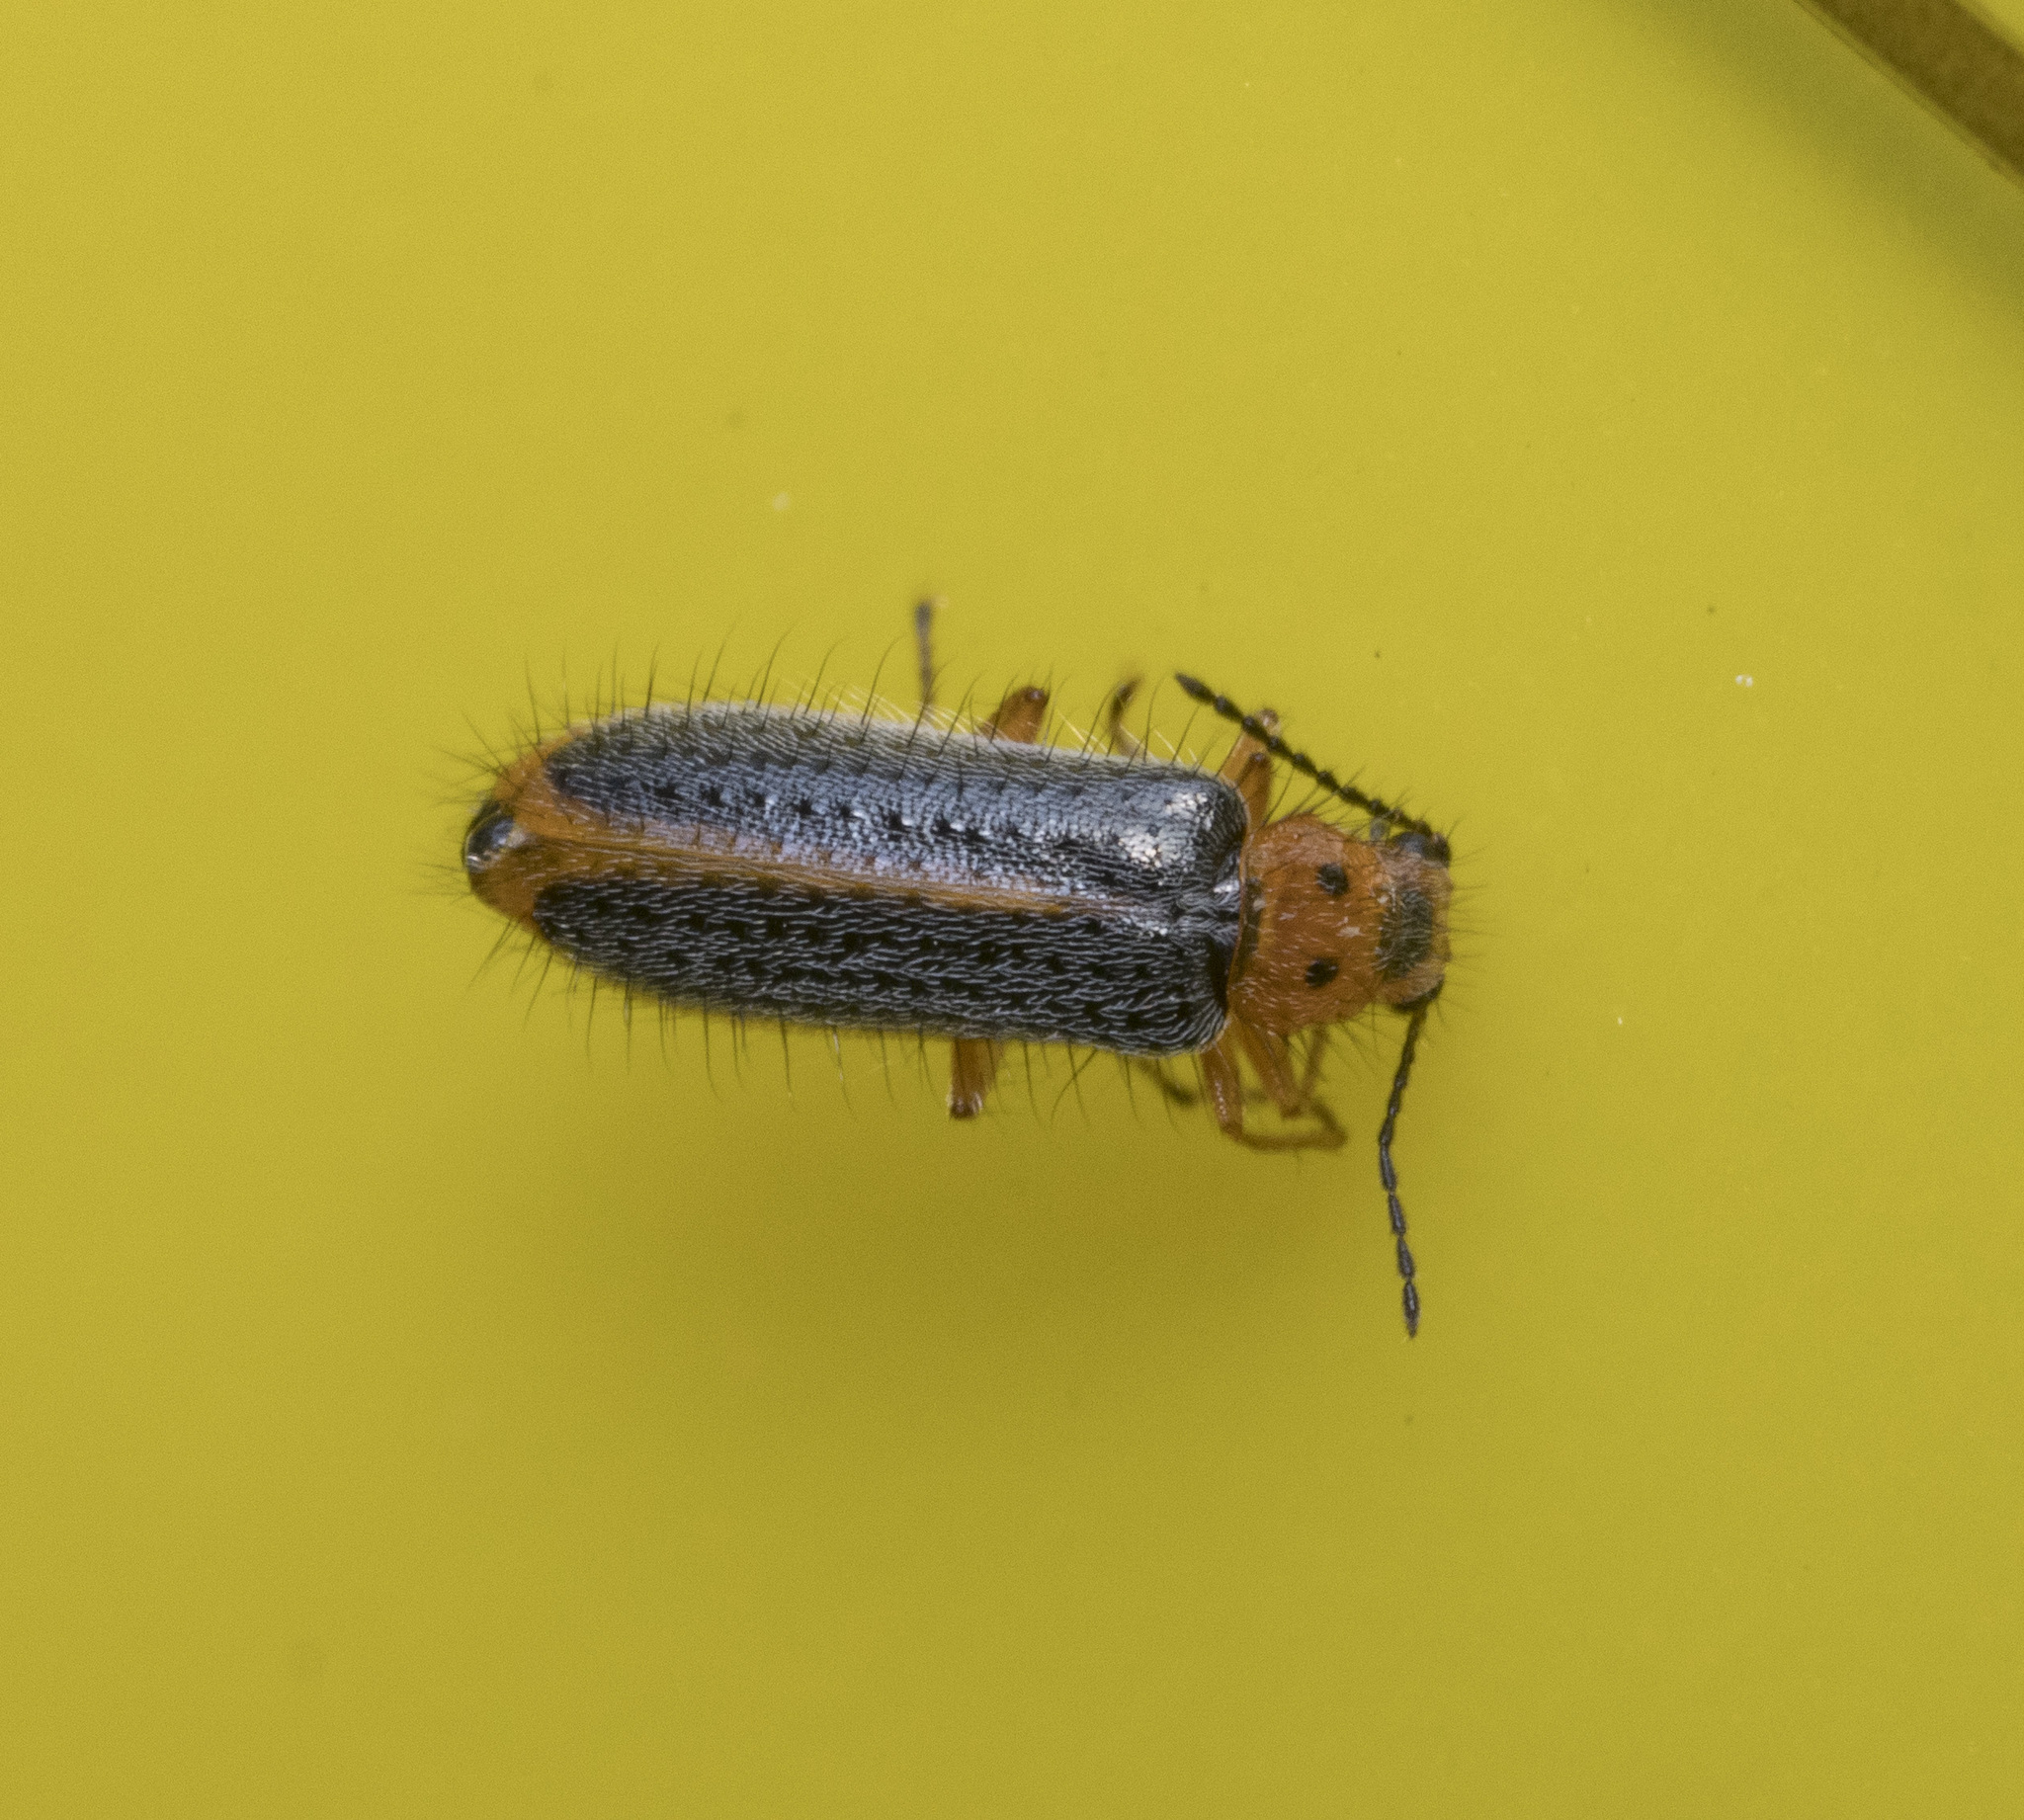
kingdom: Animalia
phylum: Arthropoda
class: Insecta
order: Coleoptera
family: Melyridae
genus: Hylodanacaea
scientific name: Hylodanacaea
